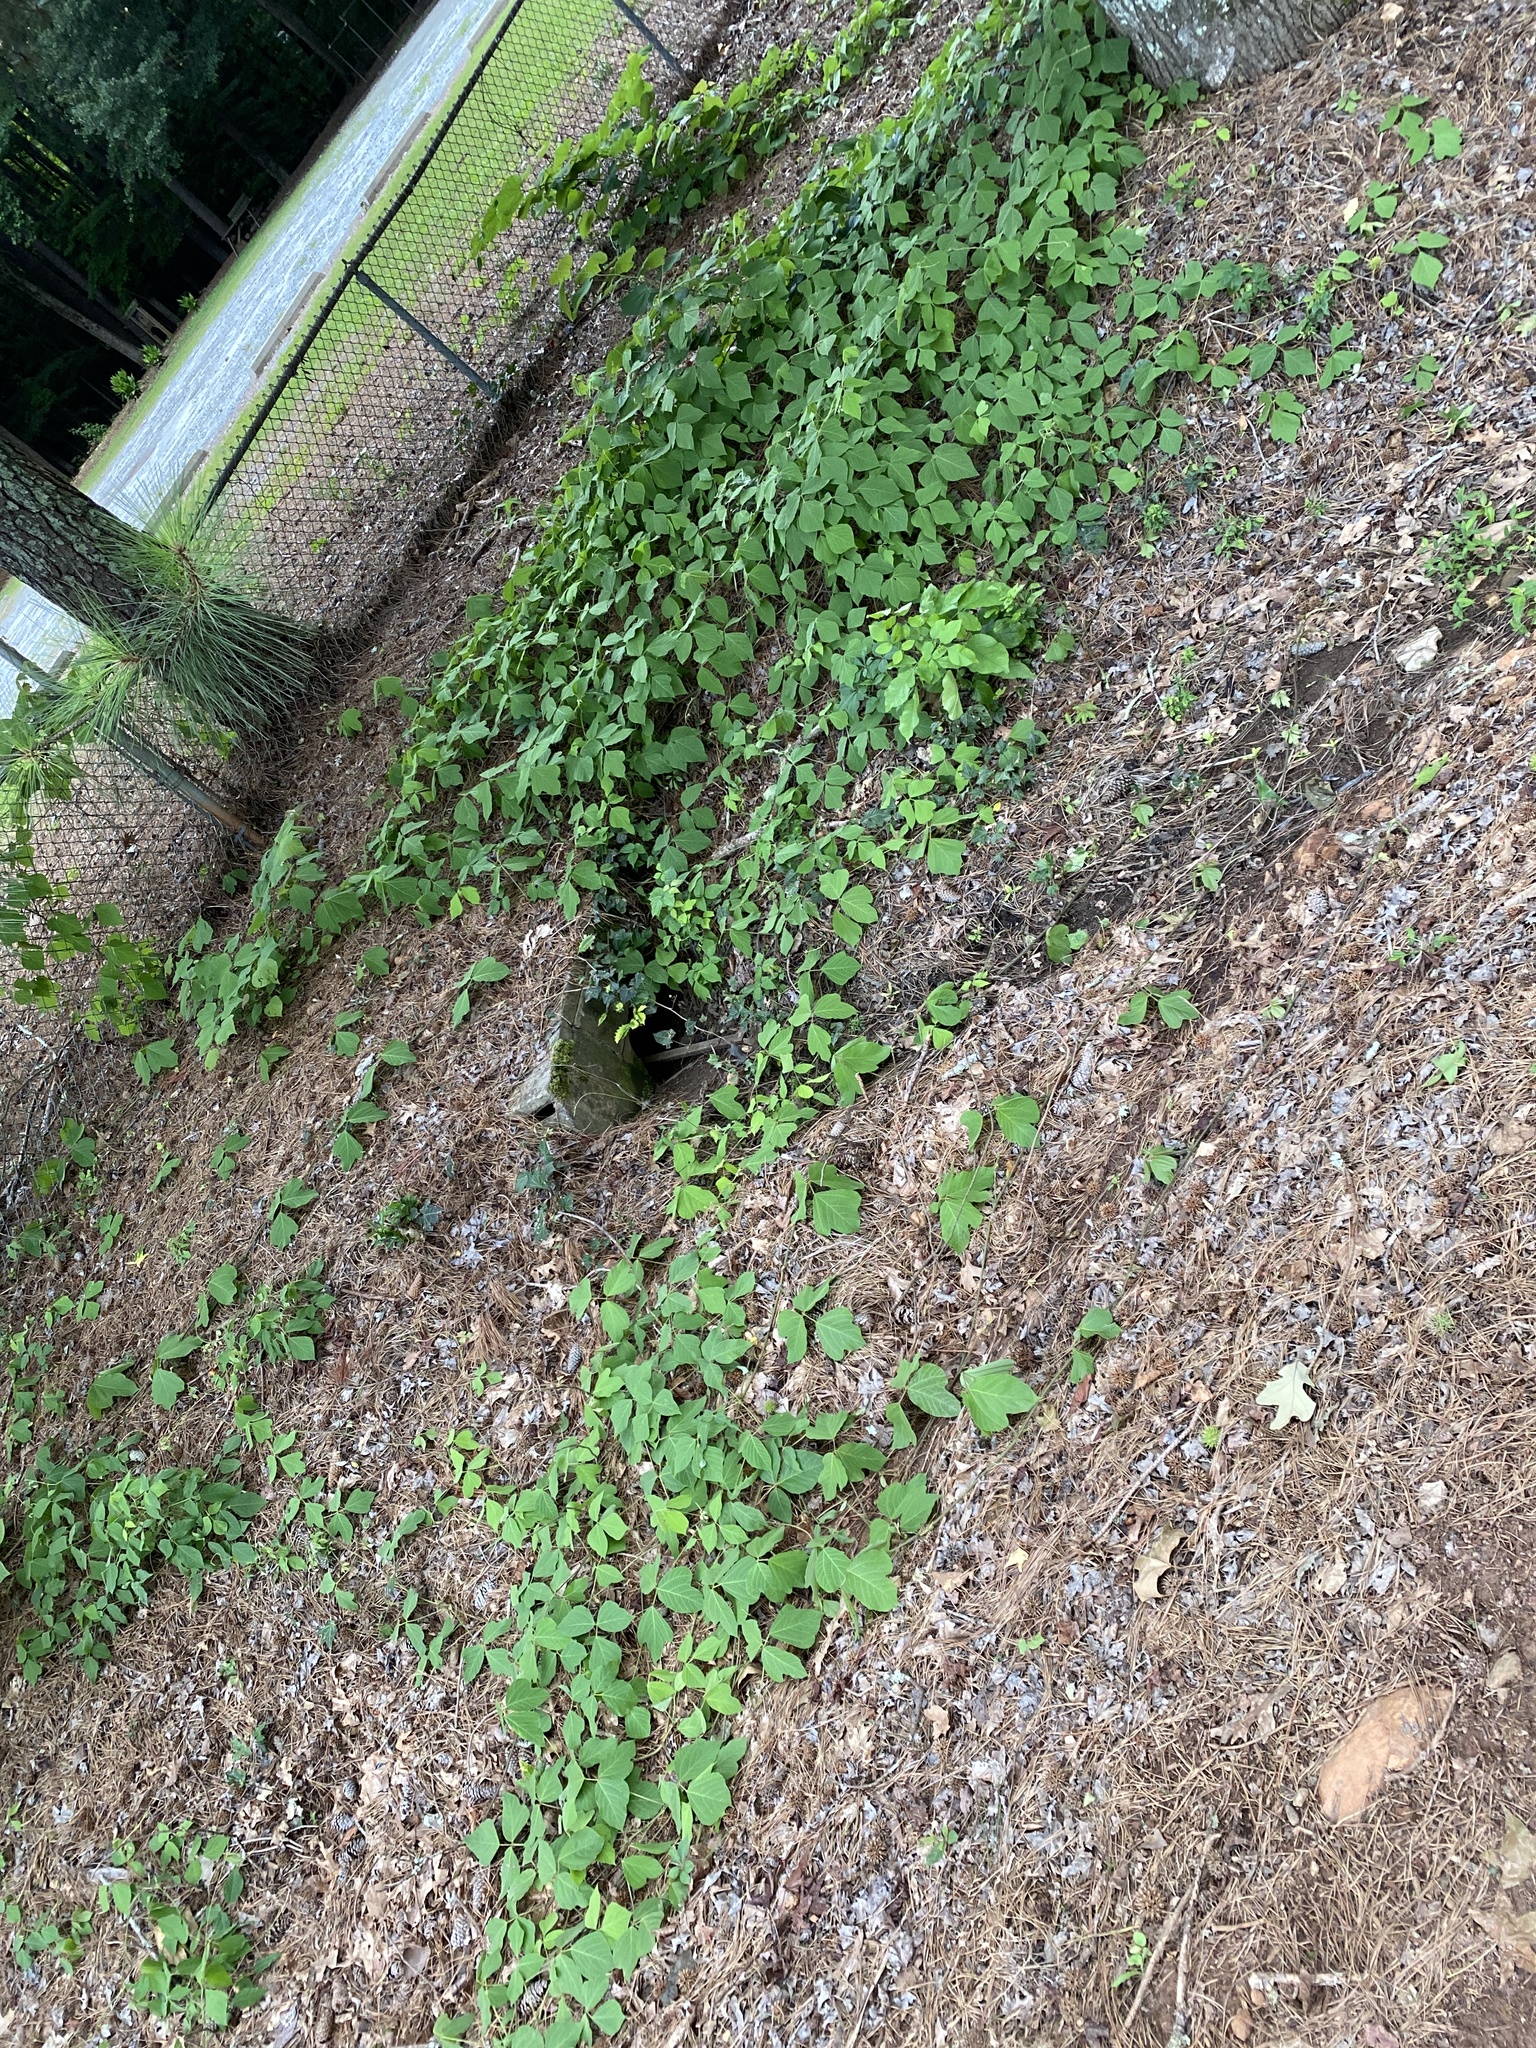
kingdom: Plantae
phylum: Tracheophyta
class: Magnoliopsida
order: Fabales
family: Fabaceae
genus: Pueraria
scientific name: Pueraria montana
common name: Kudzu
